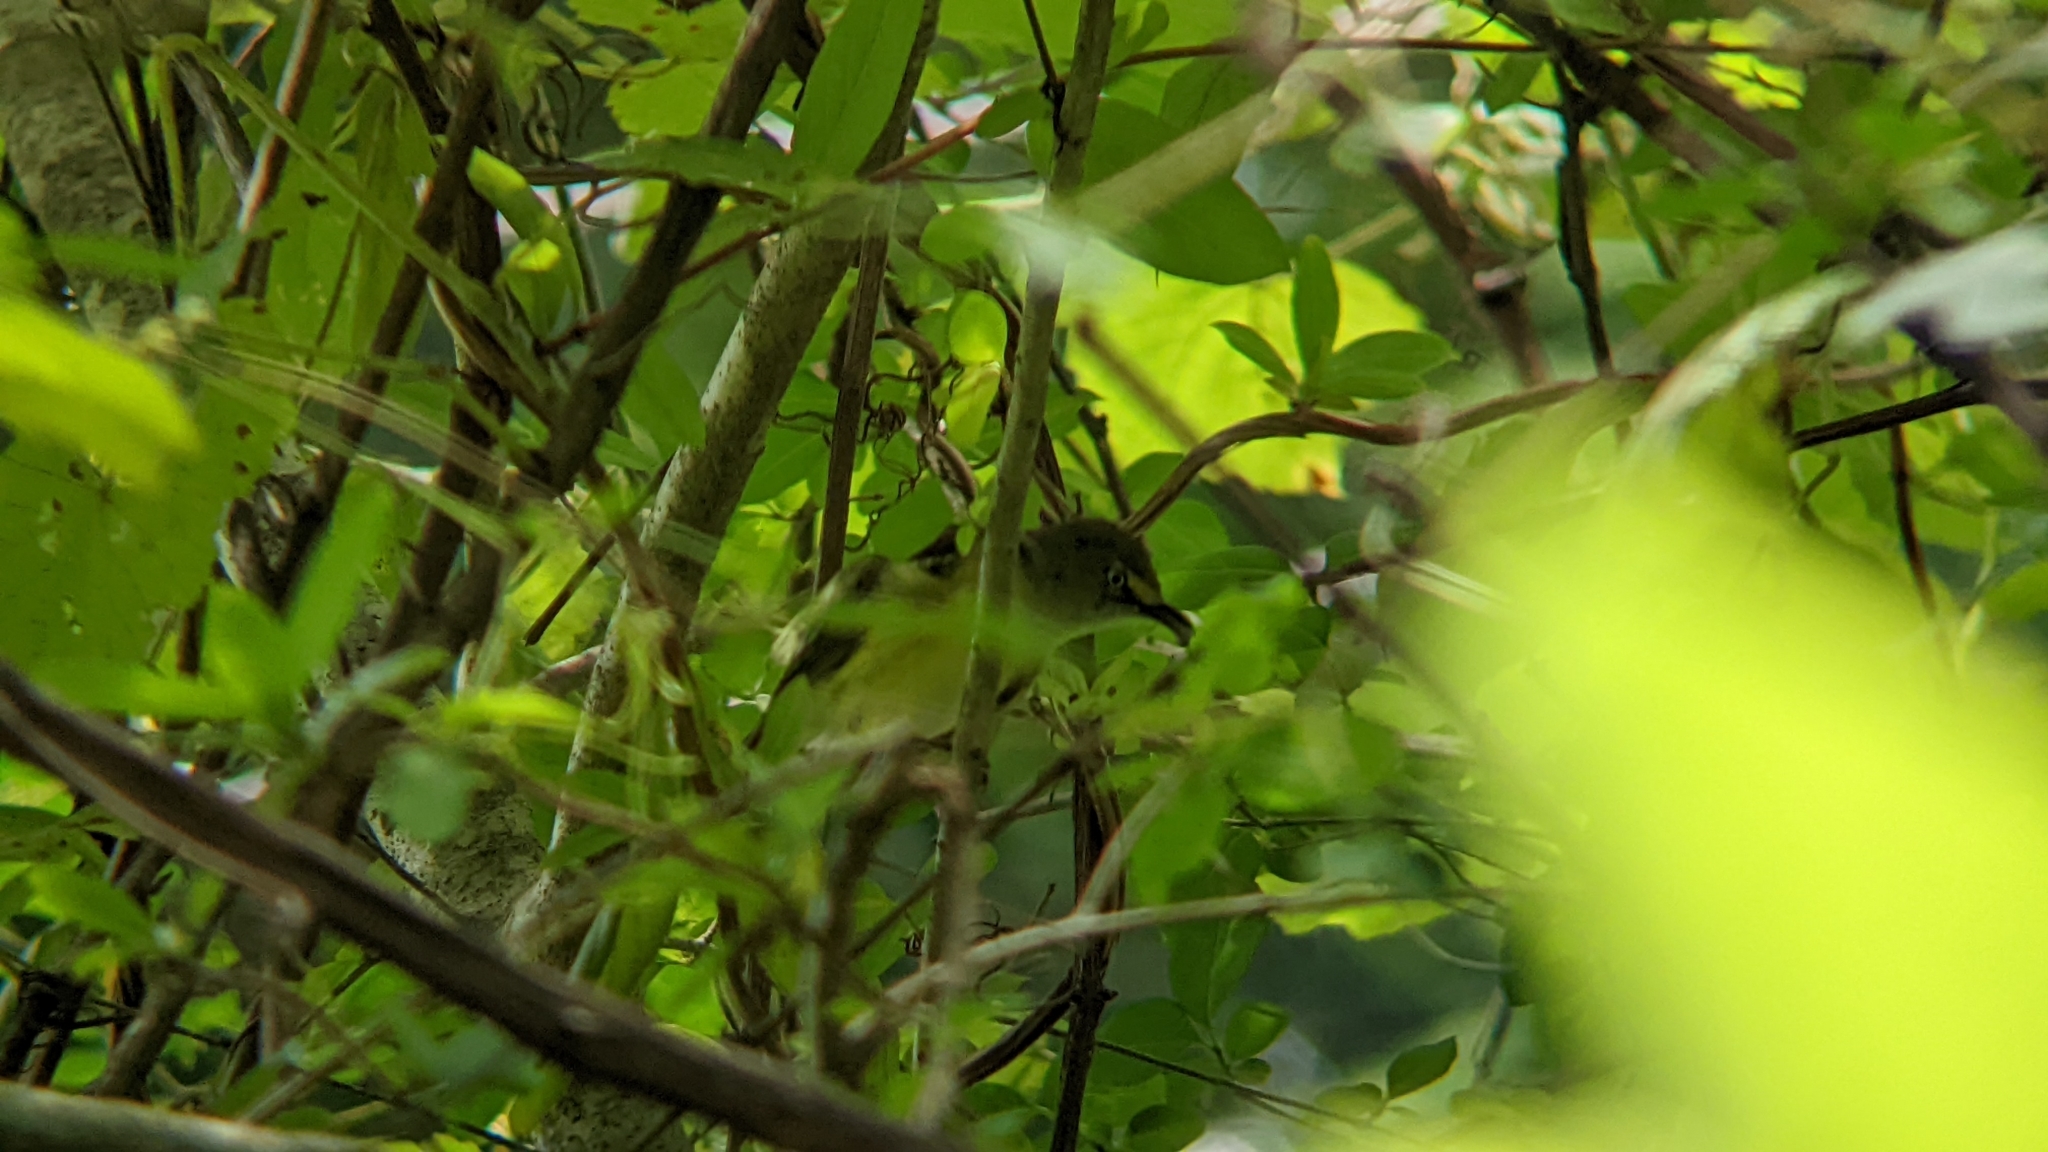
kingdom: Animalia
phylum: Chordata
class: Aves
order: Passeriformes
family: Vireonidae
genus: Vireo
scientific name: Vireo griseus
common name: White-eyed vireo
